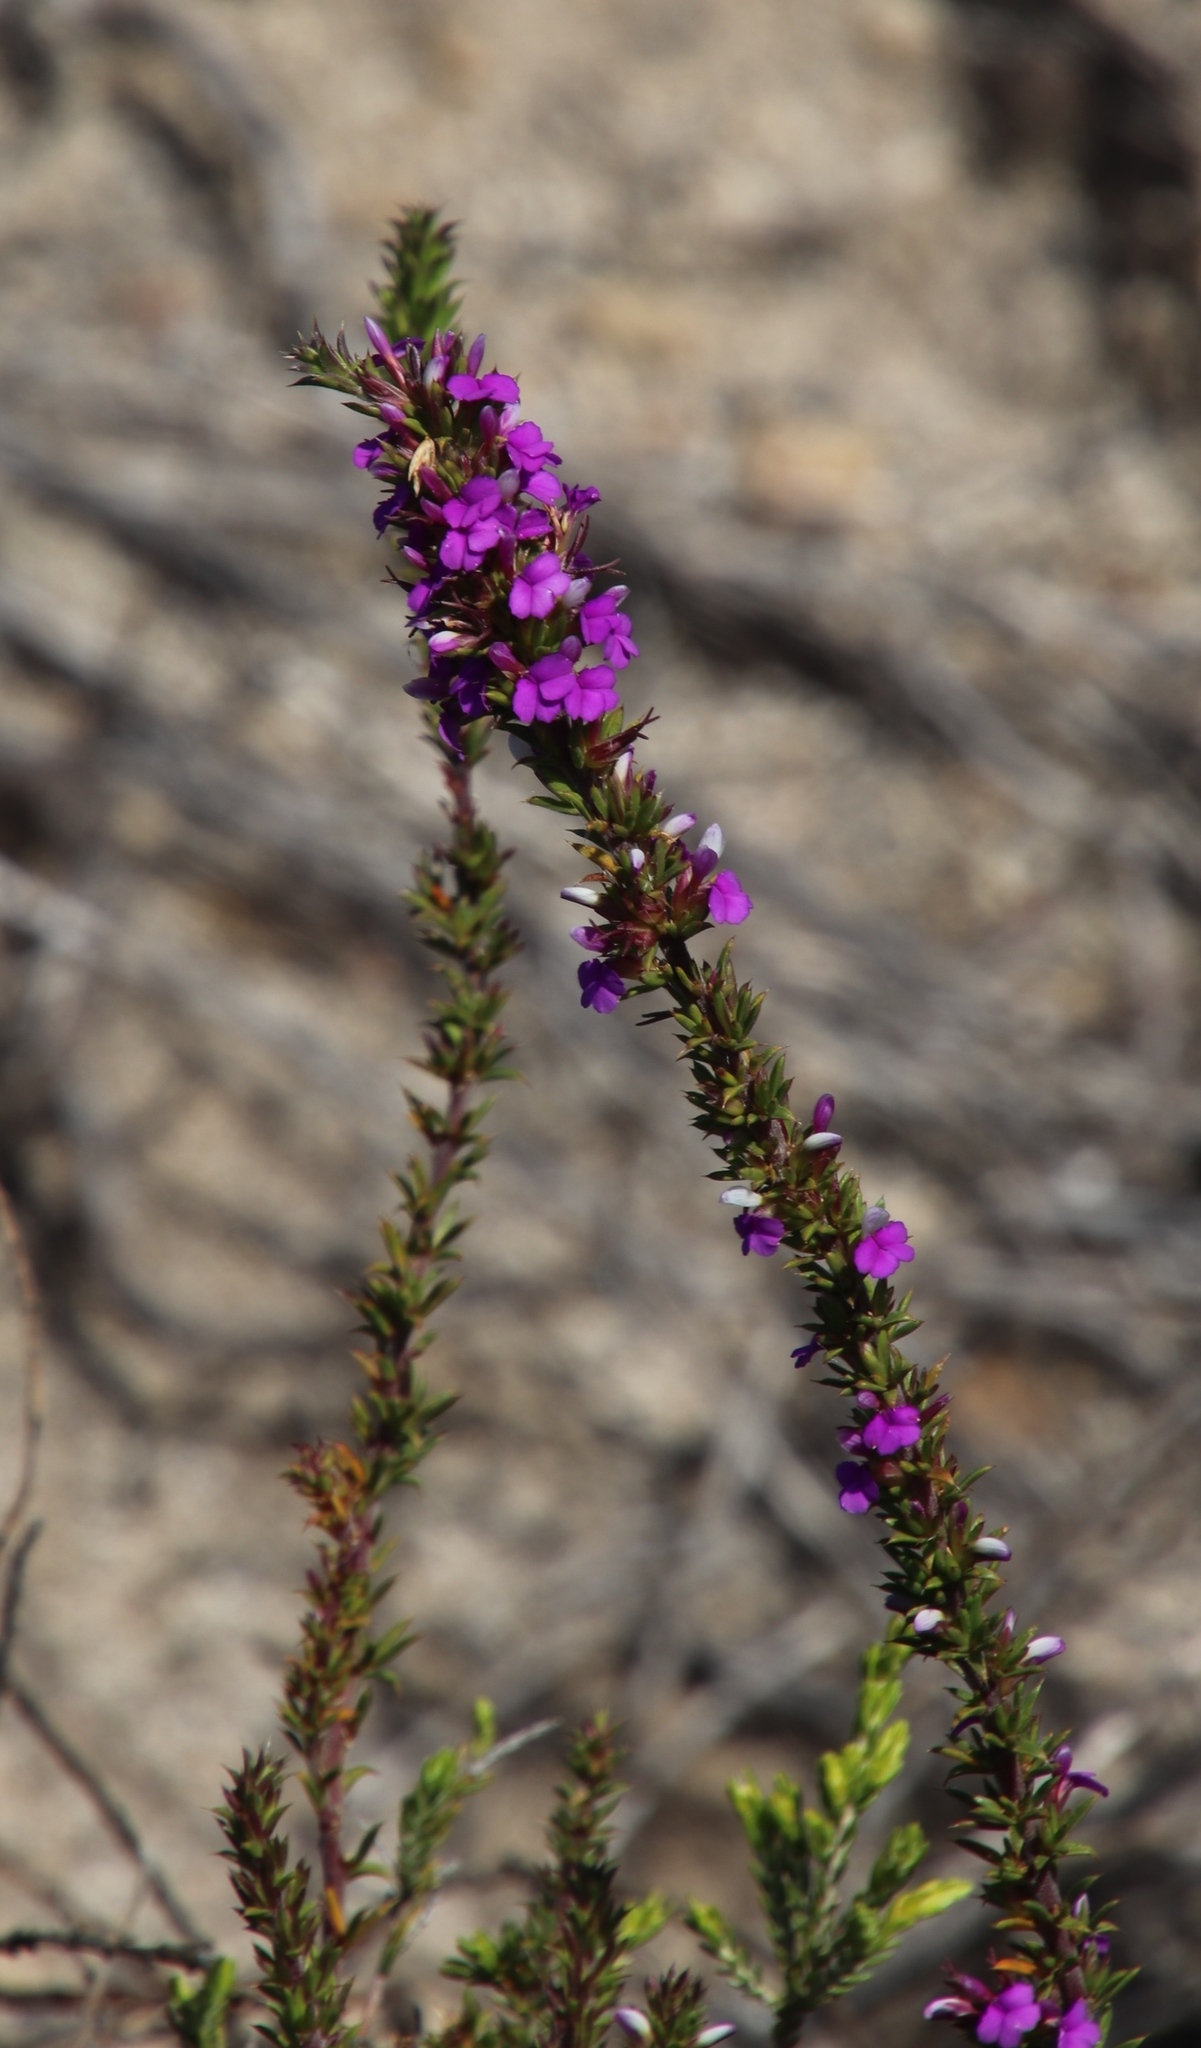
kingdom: Plantae
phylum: Tracheophyta
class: Magnoliopsida
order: Fabales
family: Polygalaceae
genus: Muraltia
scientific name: Muraltia heisteria
